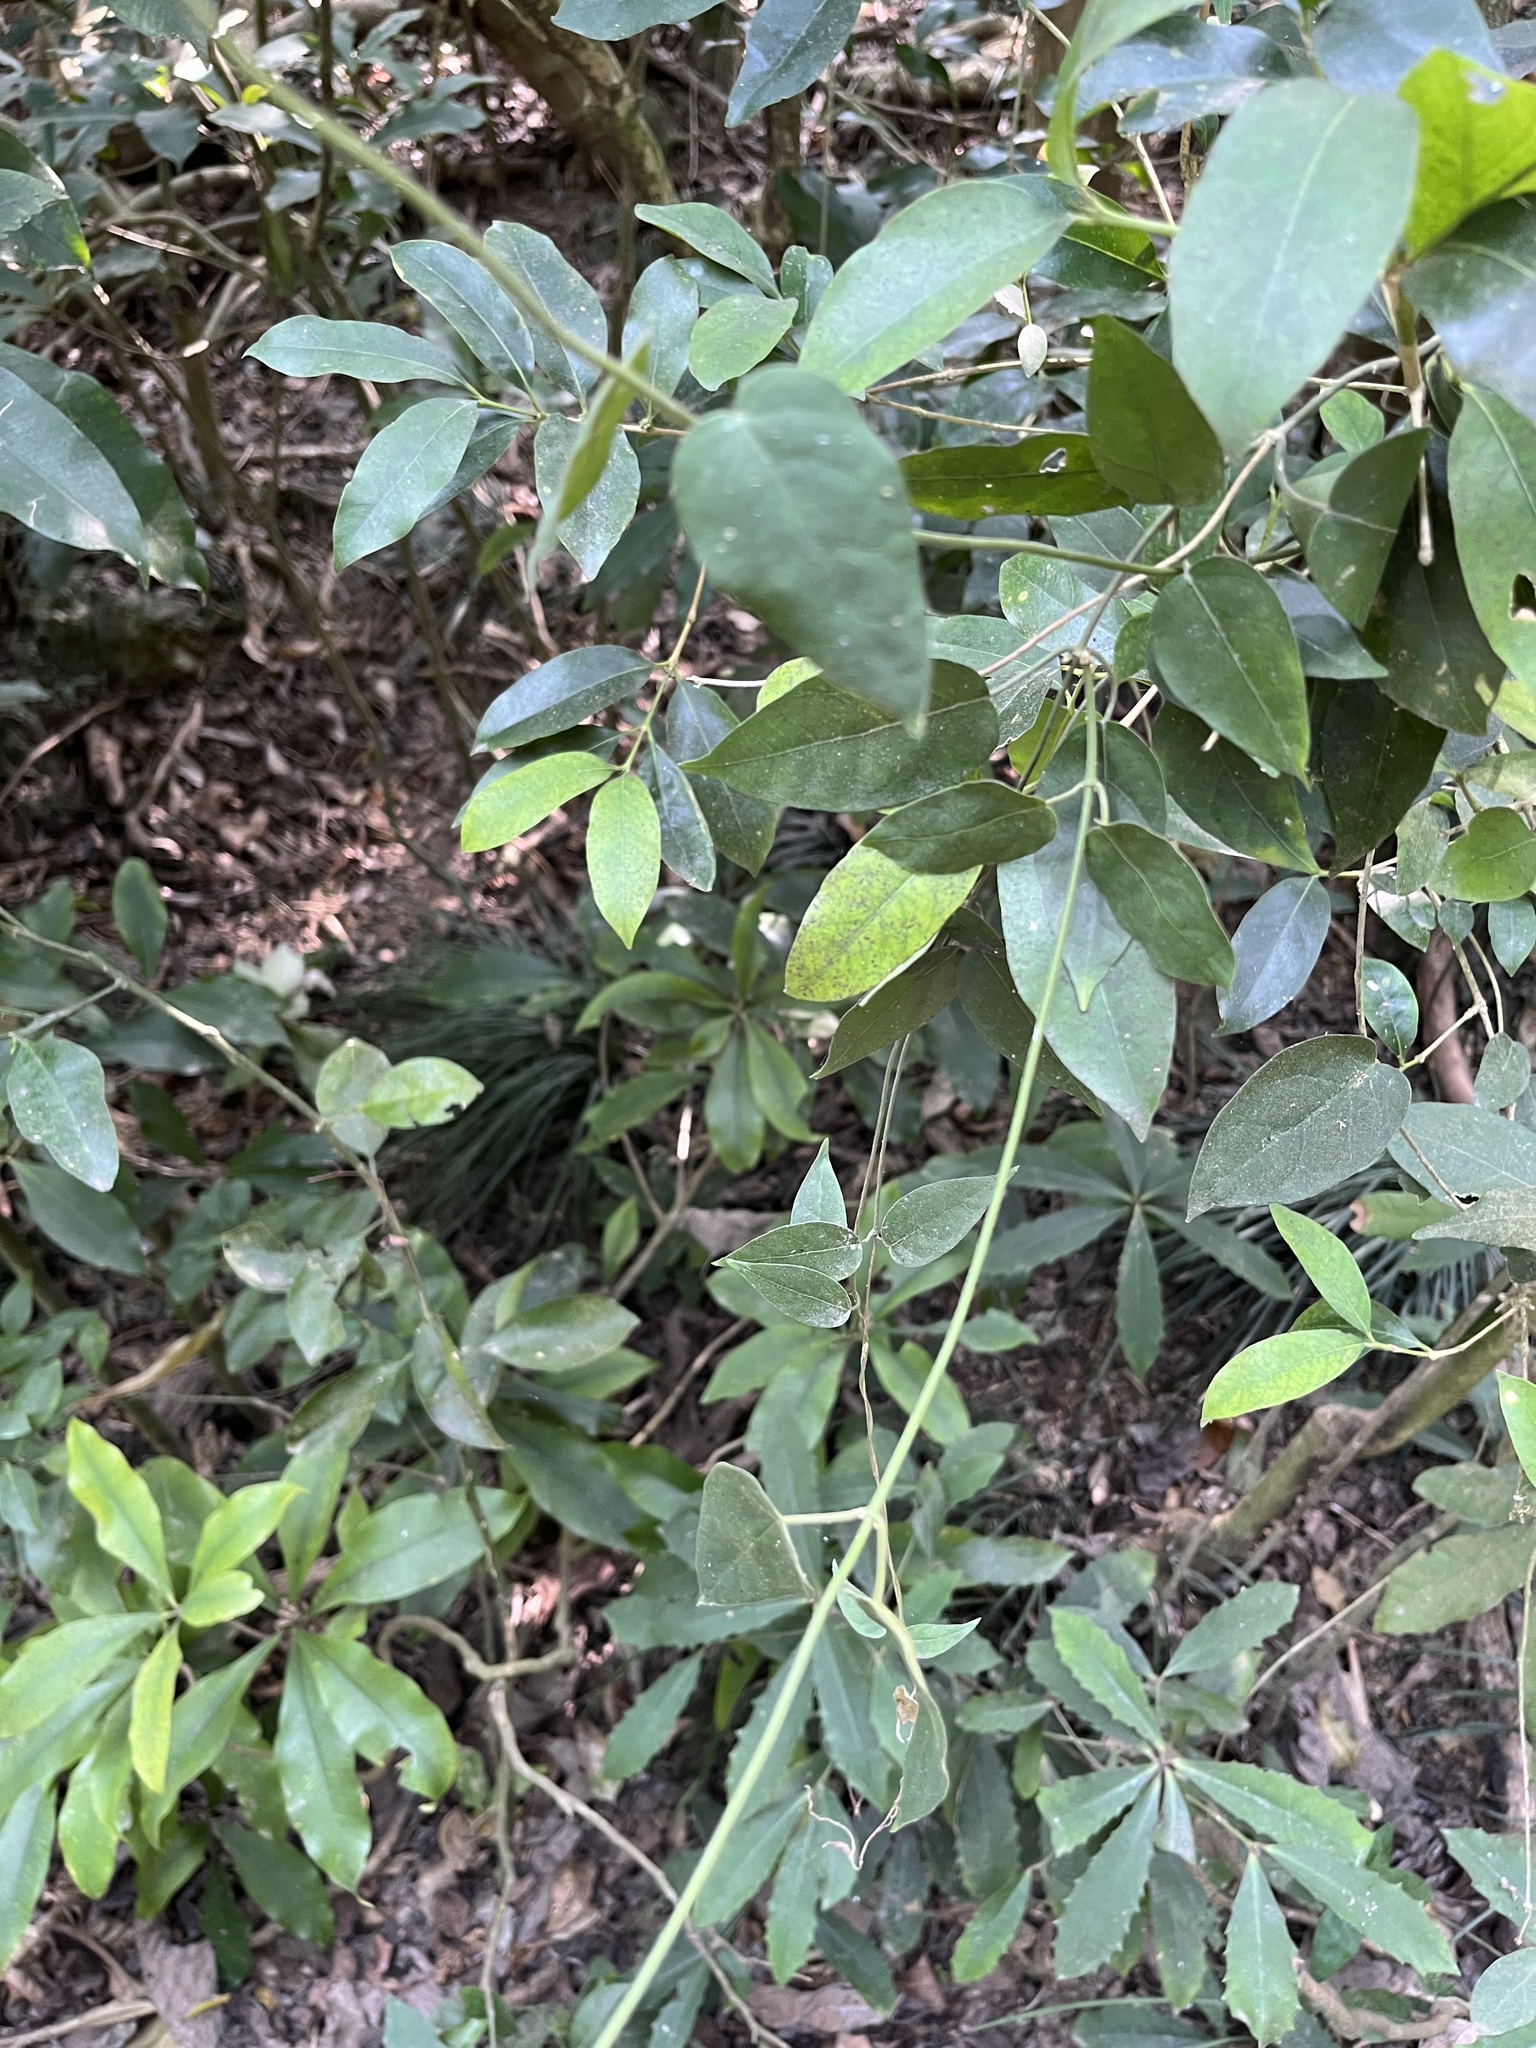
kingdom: Plantae
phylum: Tracheophyta
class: Magnoliopsida
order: Gentianales
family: Rubiaceae
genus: Paederia
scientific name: Paederia foetida
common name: Stinkvine
